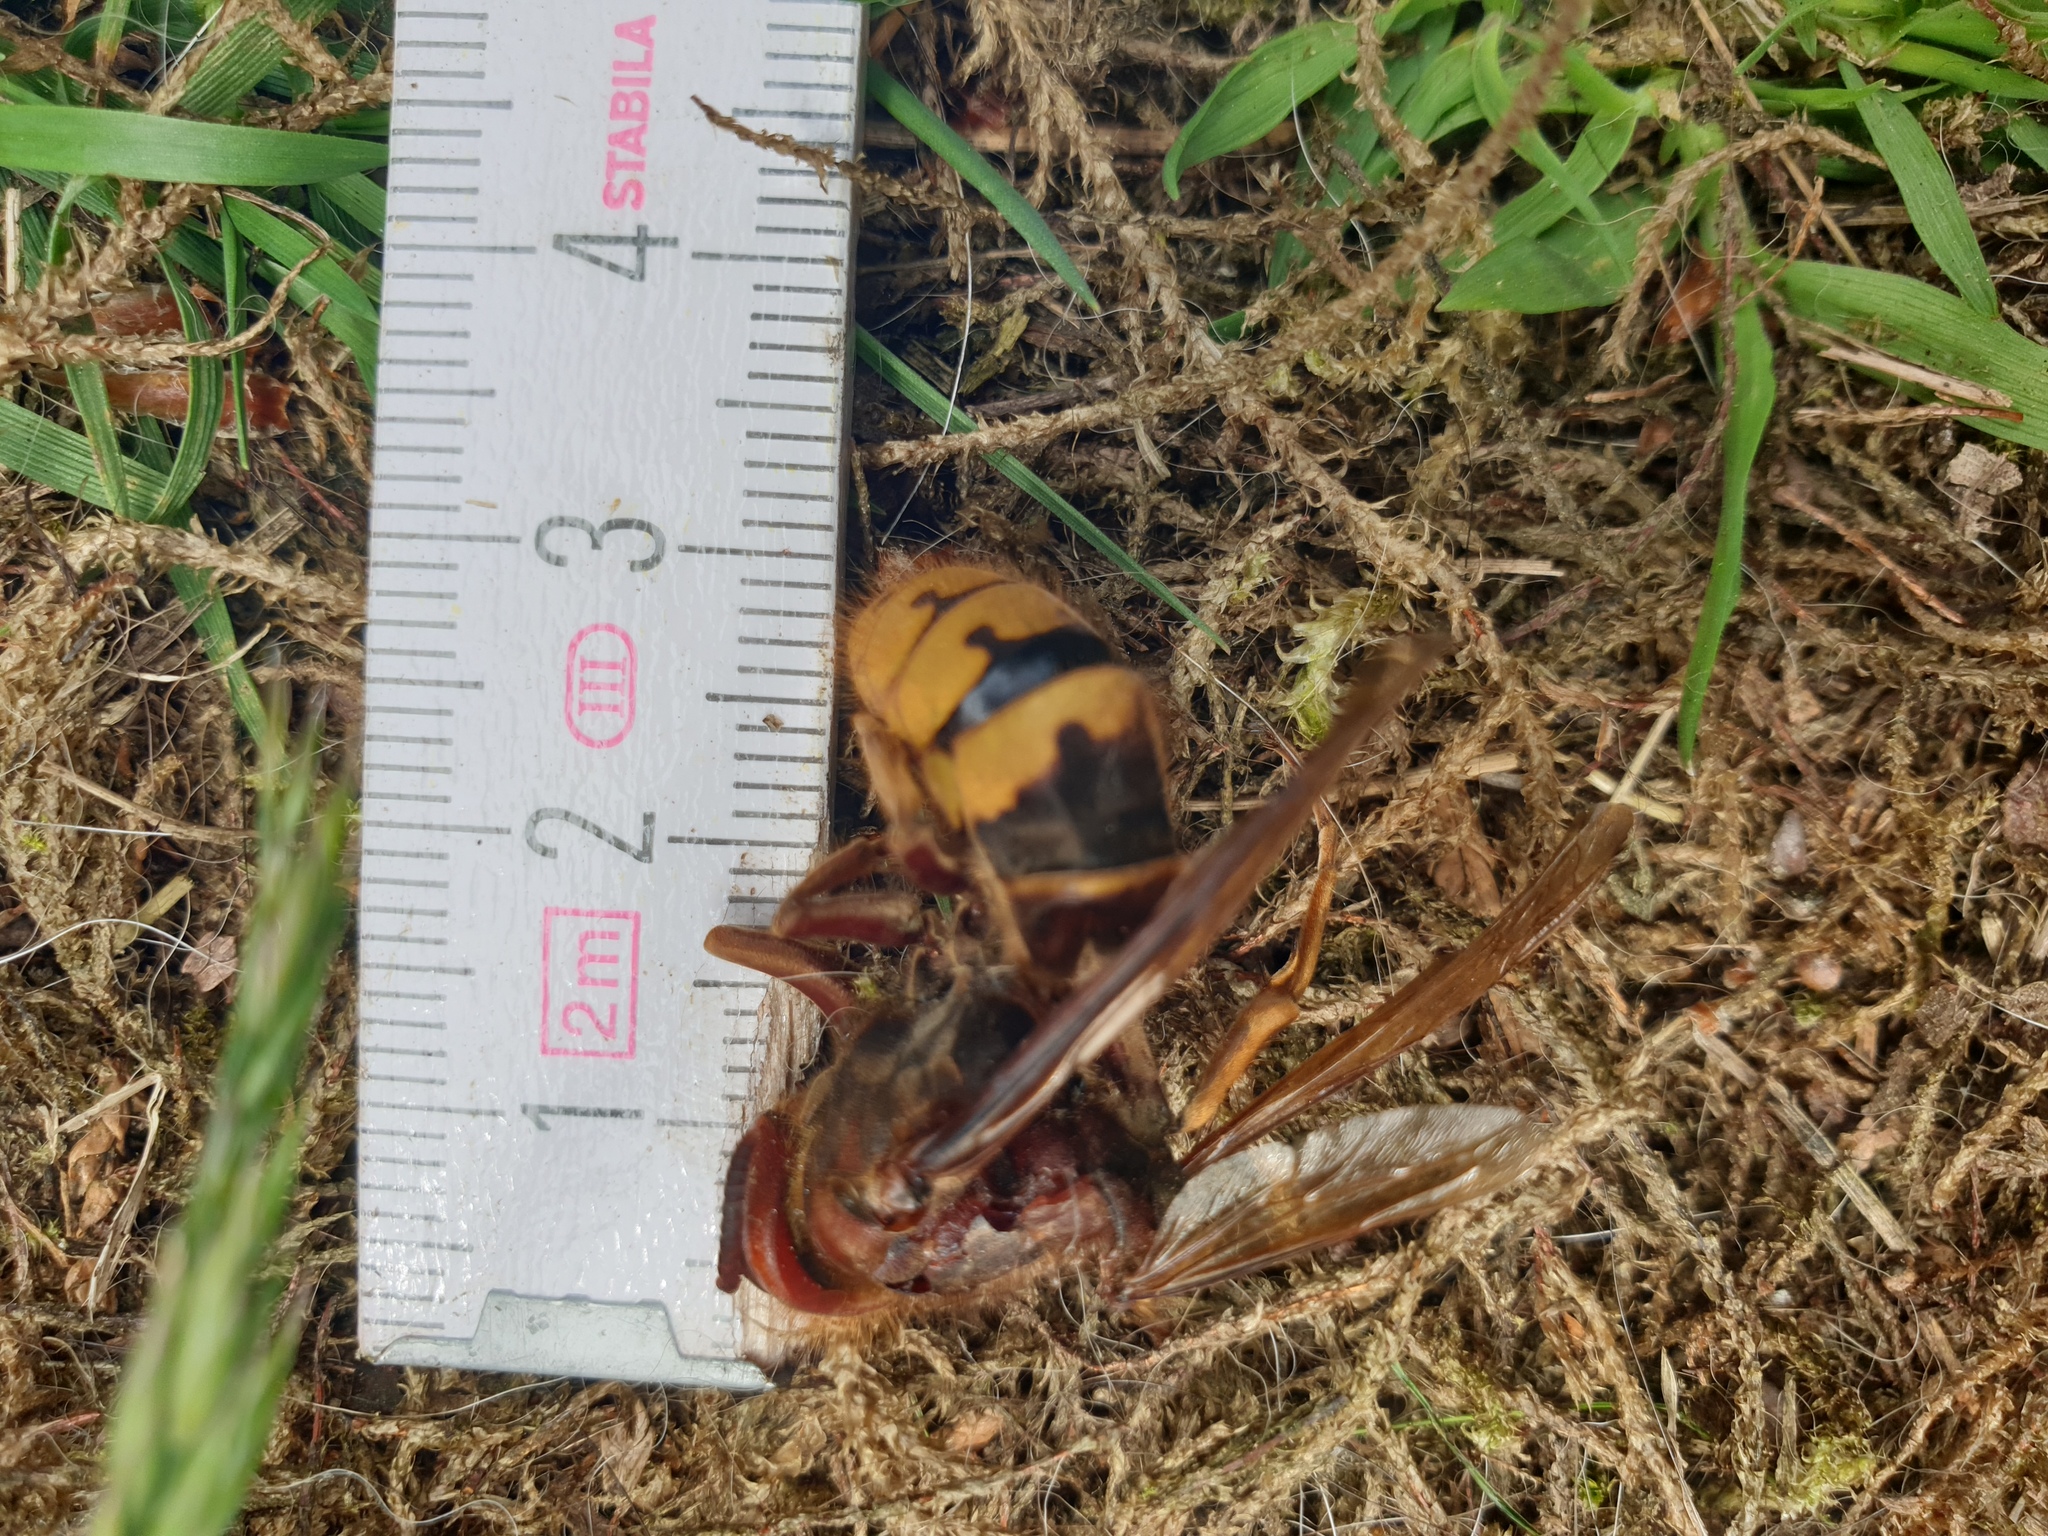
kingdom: Animalia
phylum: Arthropoda
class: Insecta
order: Hymenoptera
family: Vespidae
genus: Vespa
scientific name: Vespa crabro
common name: Hornet
